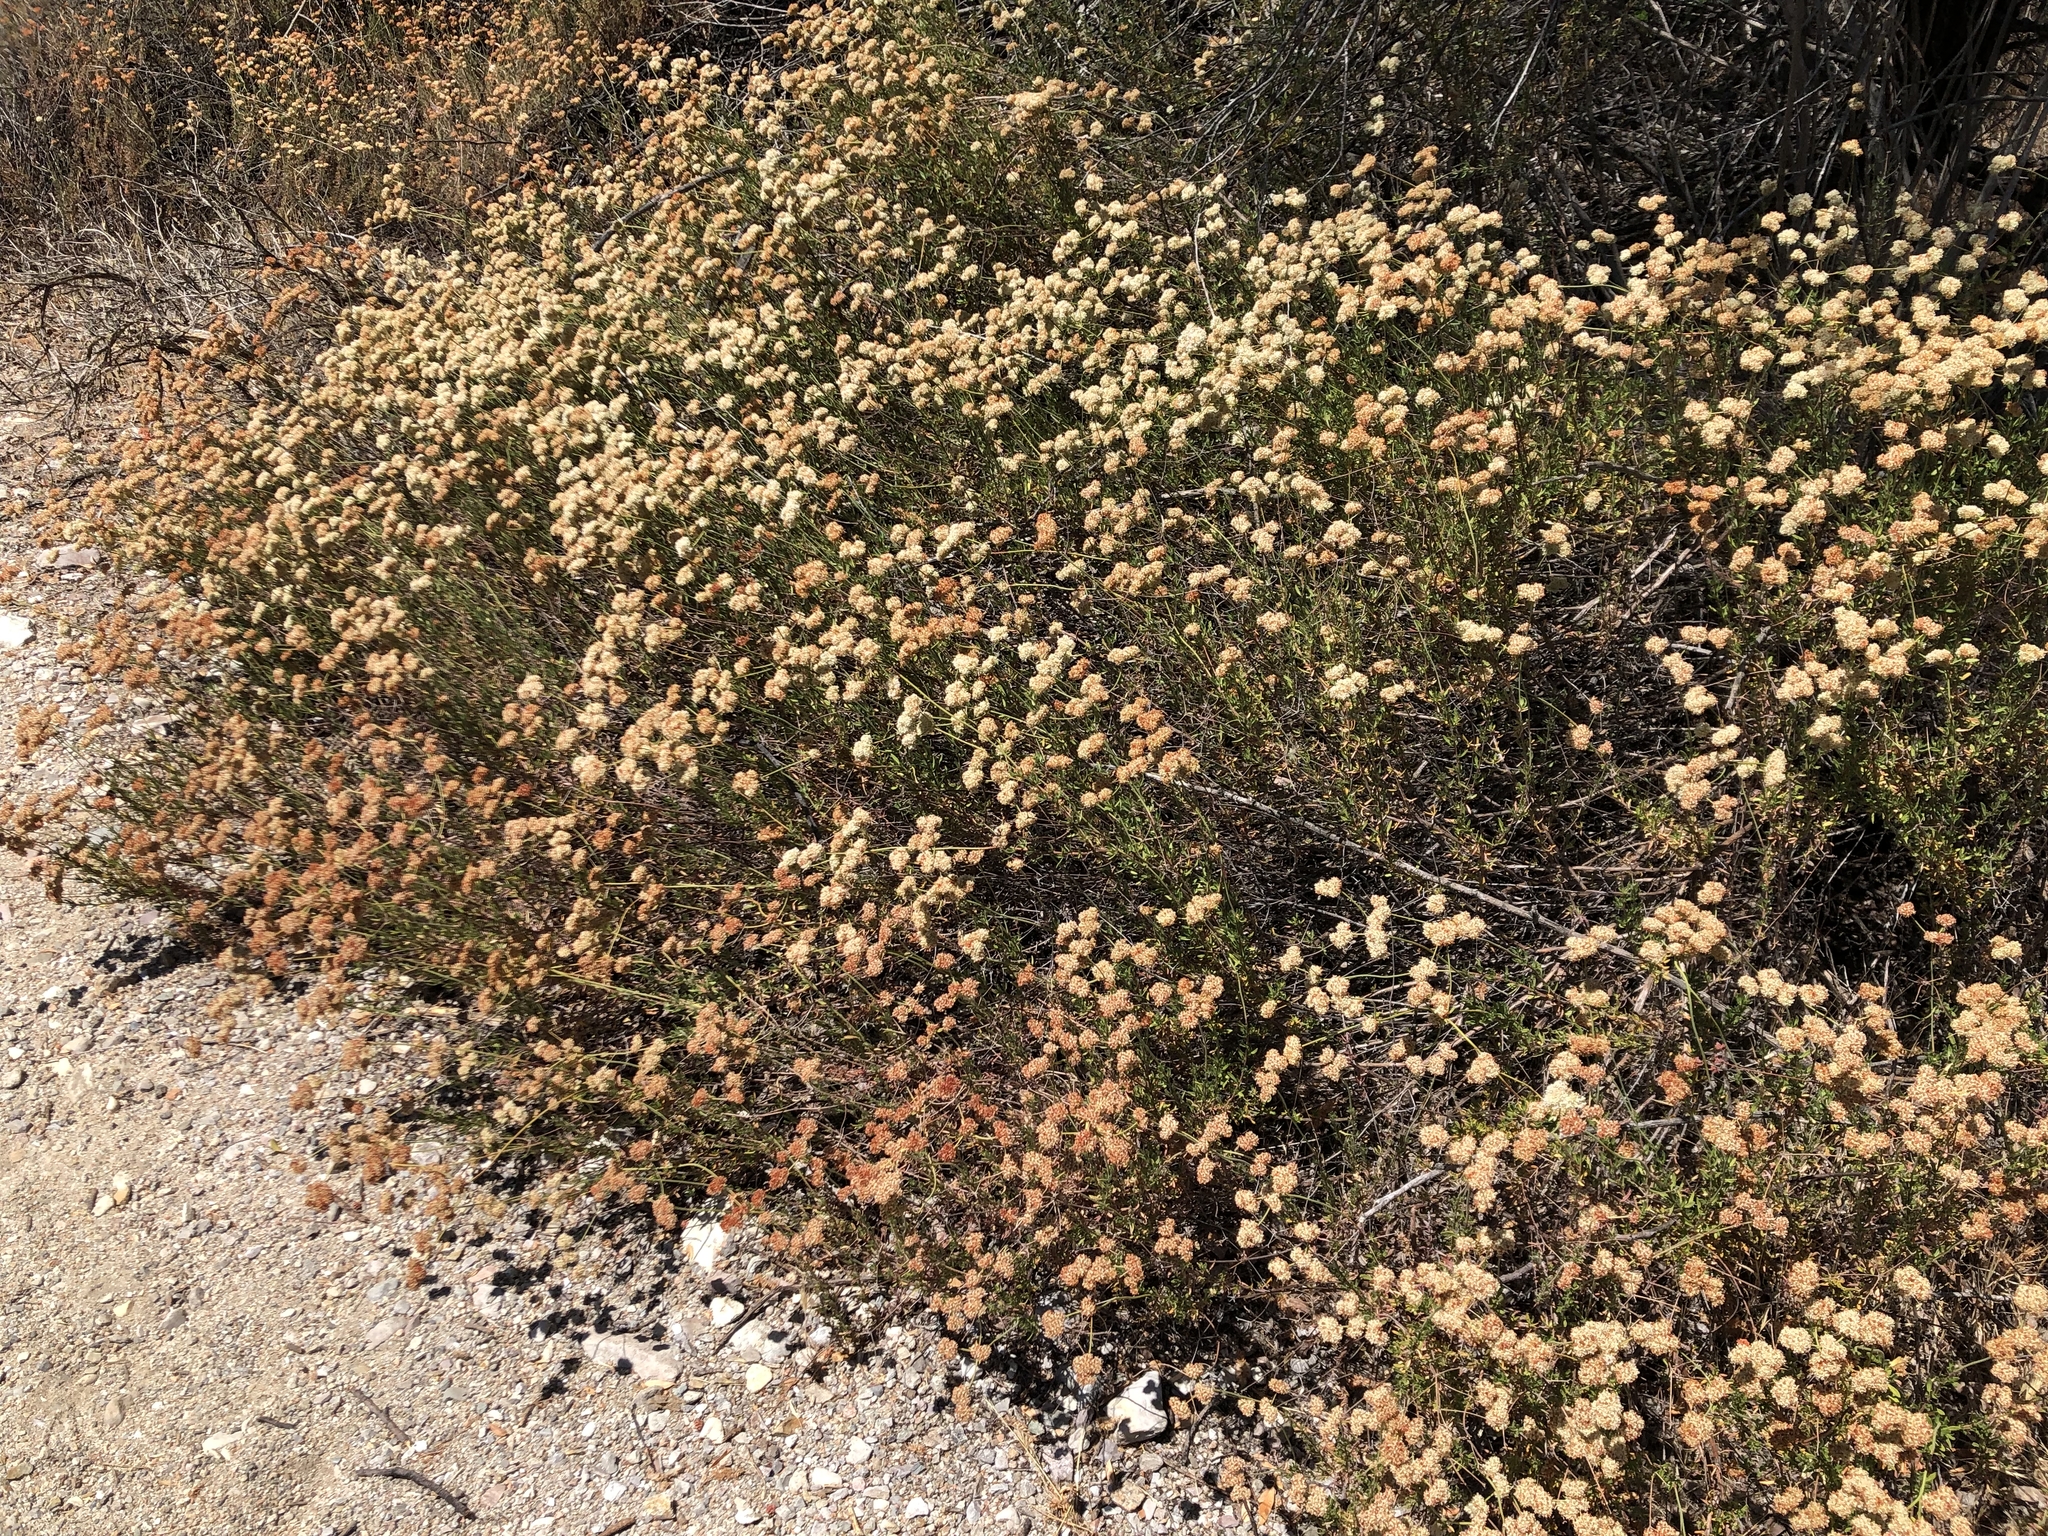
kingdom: Plantae
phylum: Tracheophyta
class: Magnoliopsida
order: Caryophyllales
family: Polygonaceae
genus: Eriogonum
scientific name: Eriogonum fasciculatum
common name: California wild buckwheat
